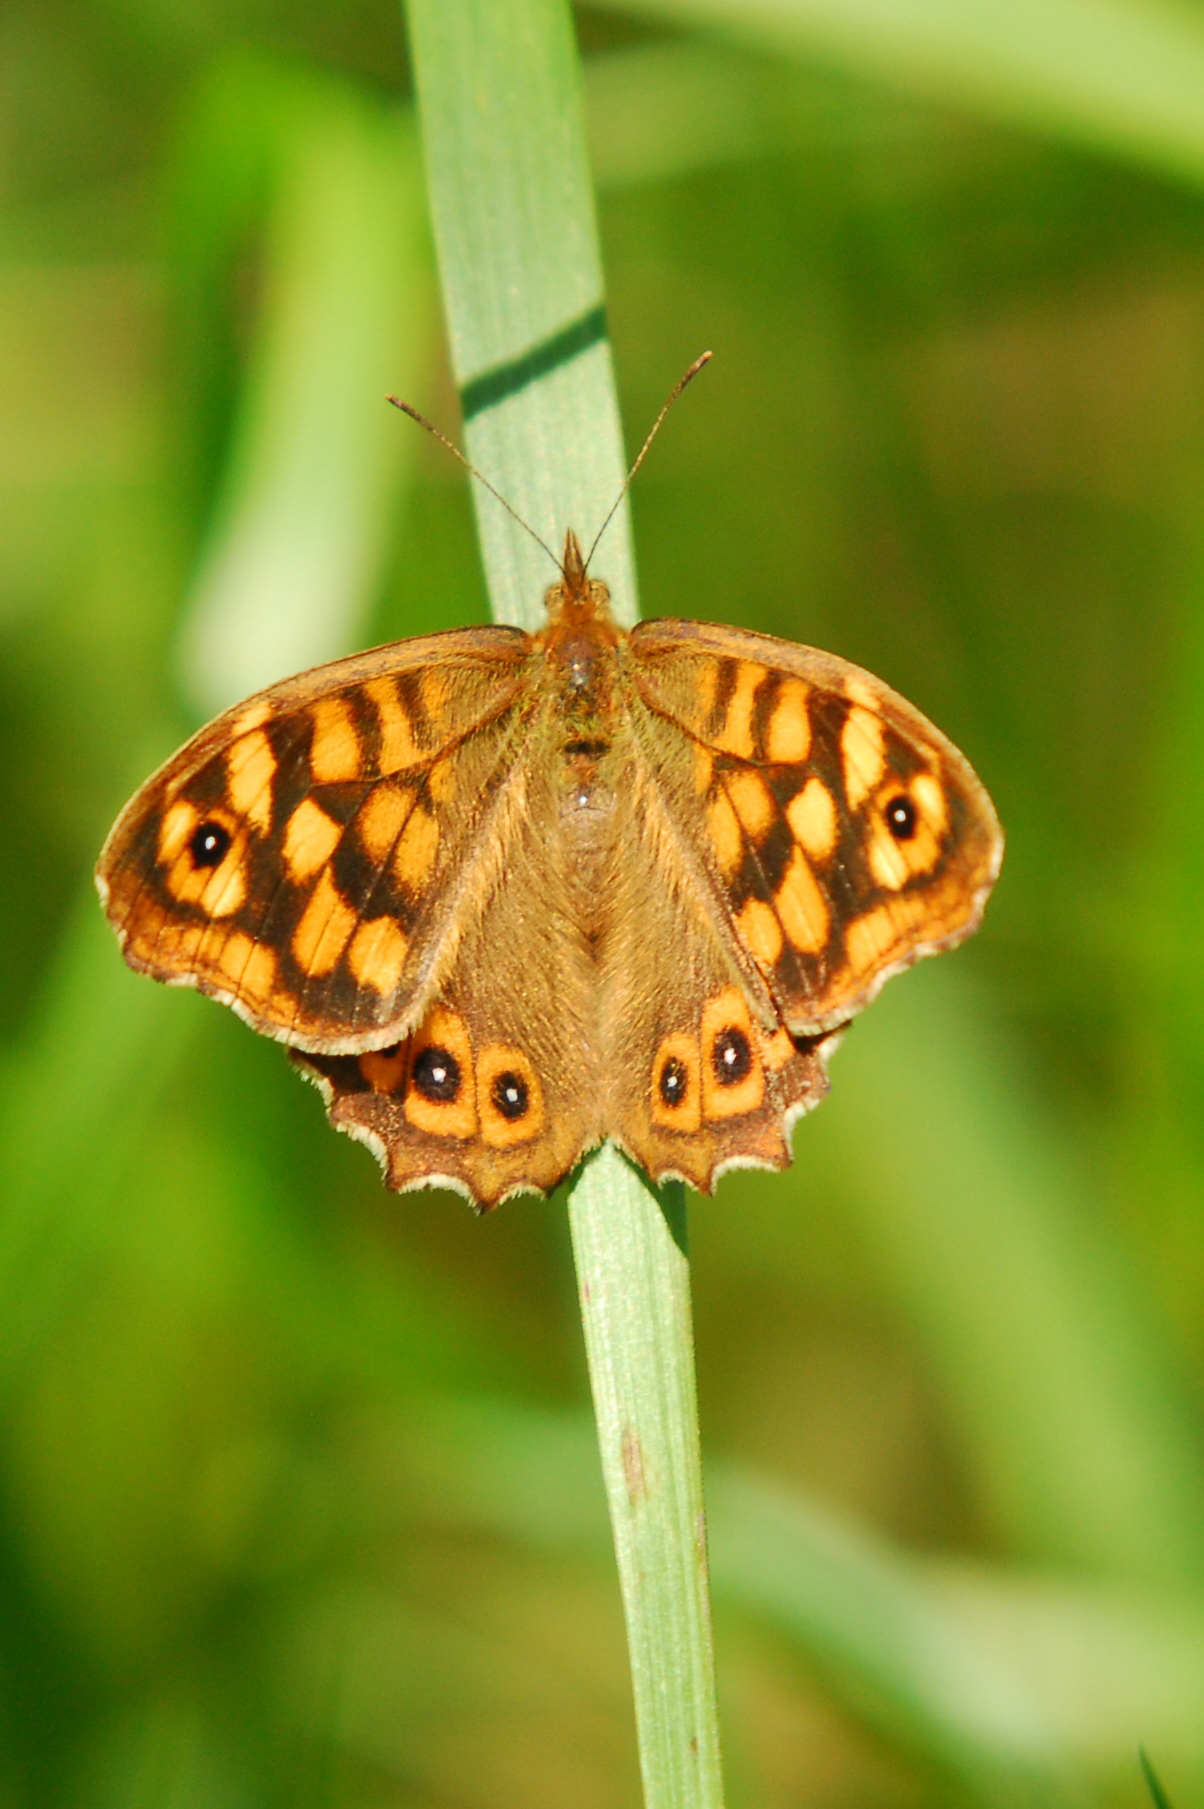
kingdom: Animalia
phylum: Arthropoda
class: Insecta
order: Lepidoptera
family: Nymphalidae
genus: Pararge
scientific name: Pararge aegeria
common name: Speckled wood
